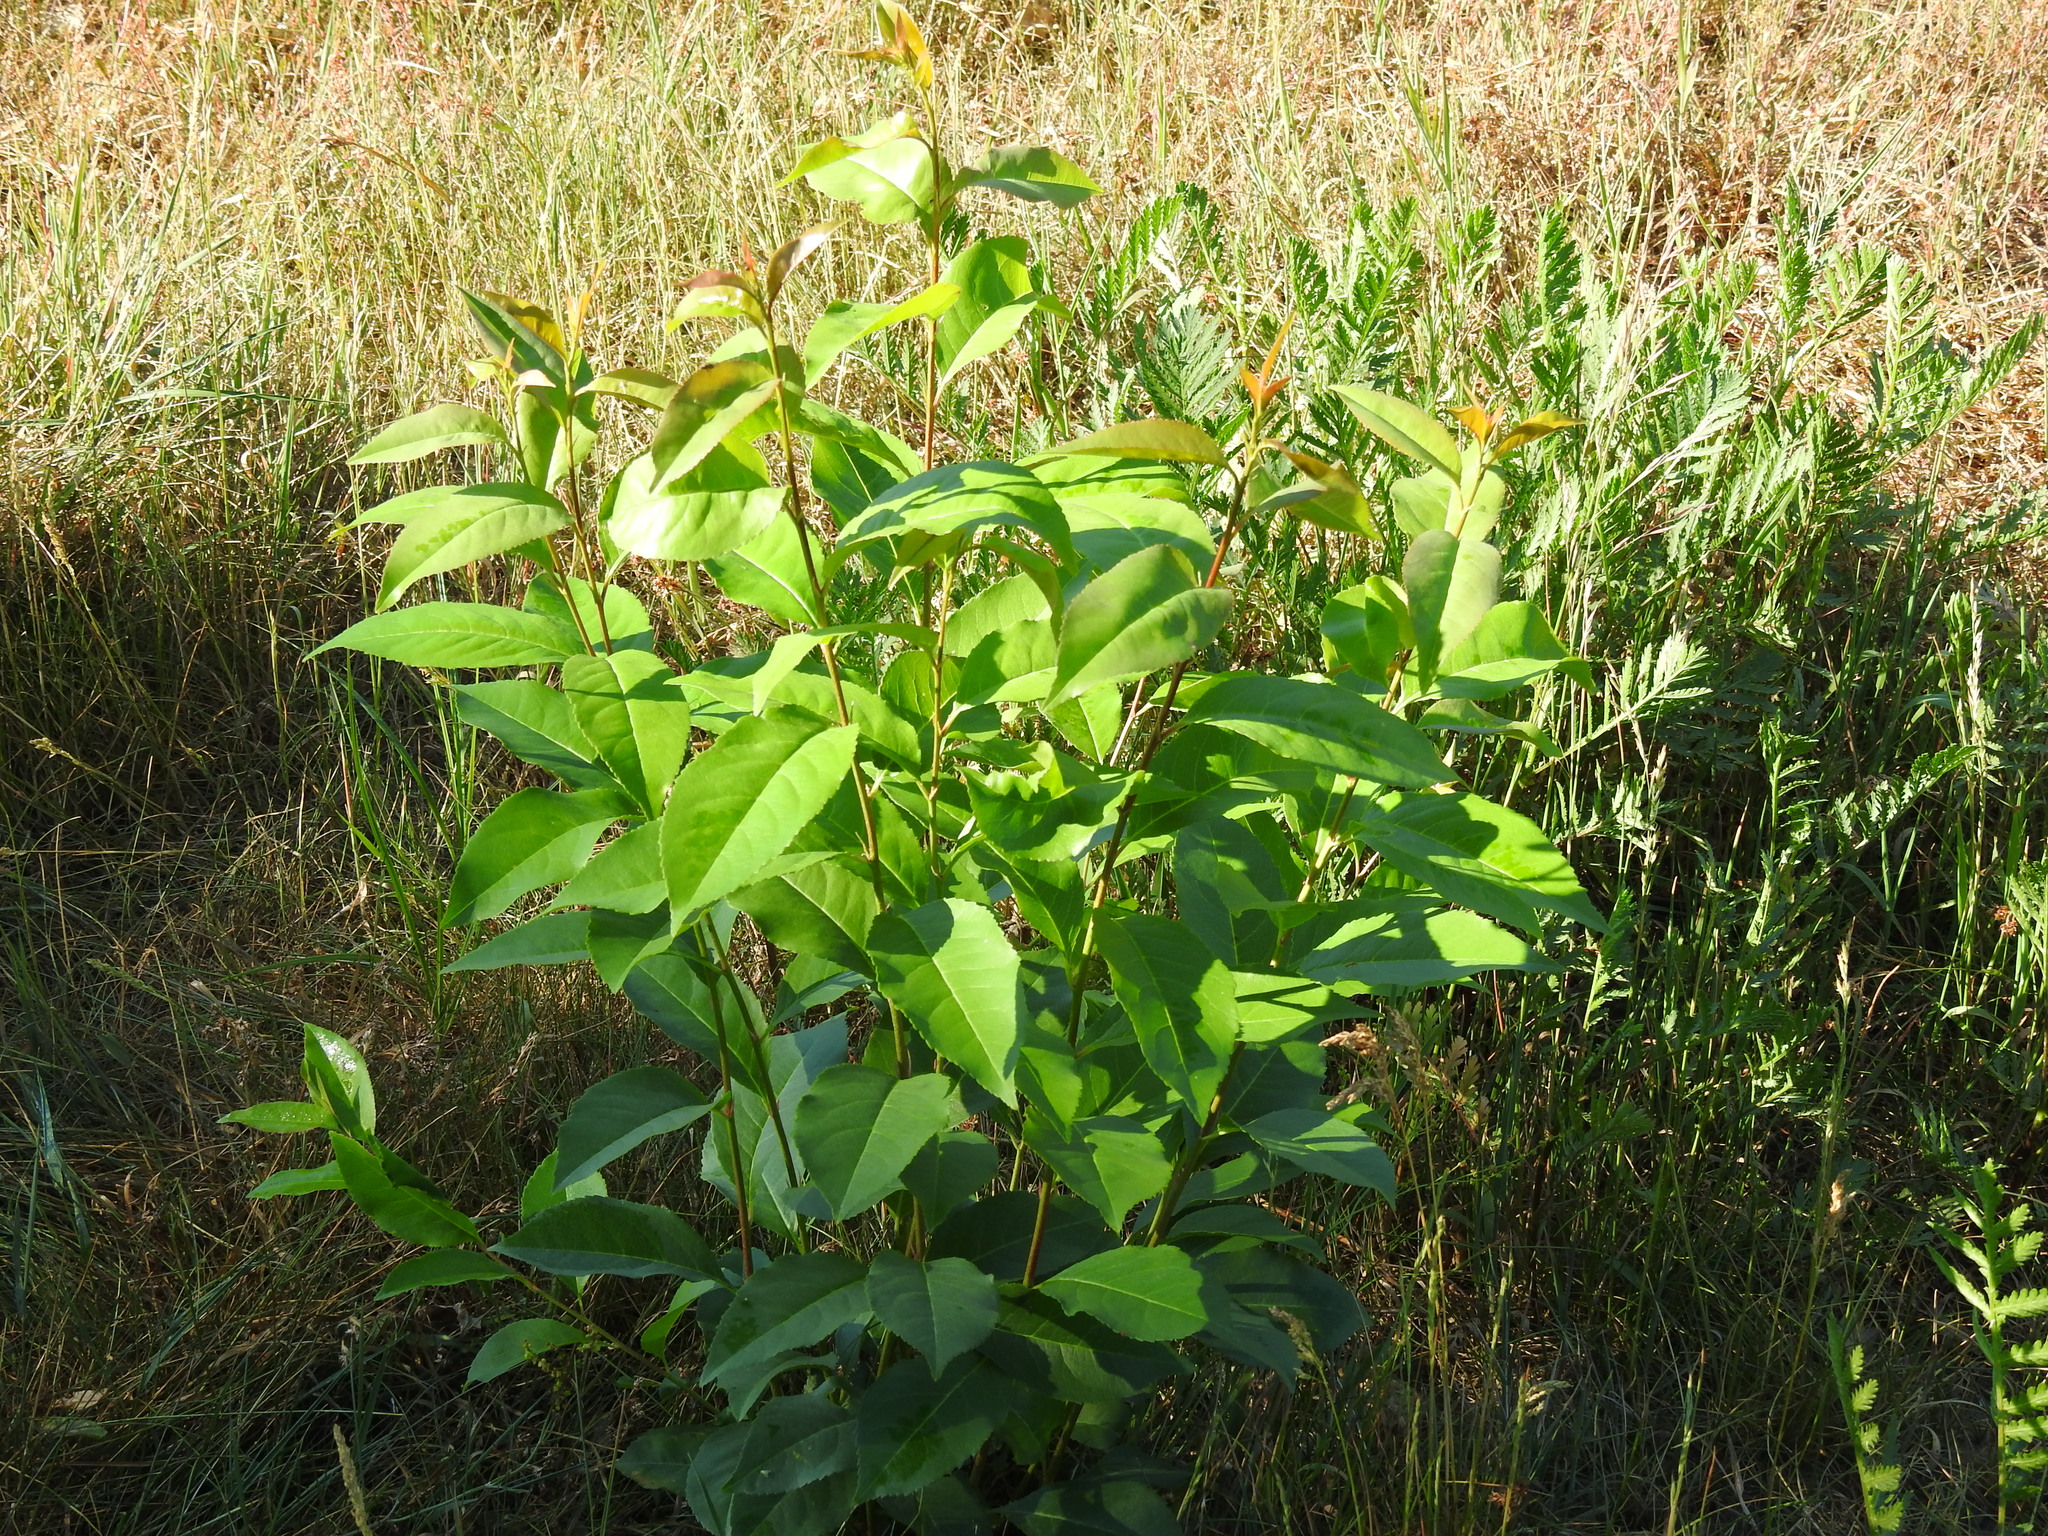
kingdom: Plantae
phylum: Tracheophyta
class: Magnoliopsida
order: Rosales
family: Rosaceae
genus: Prunus
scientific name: Prunus serotina
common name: Black cherry
